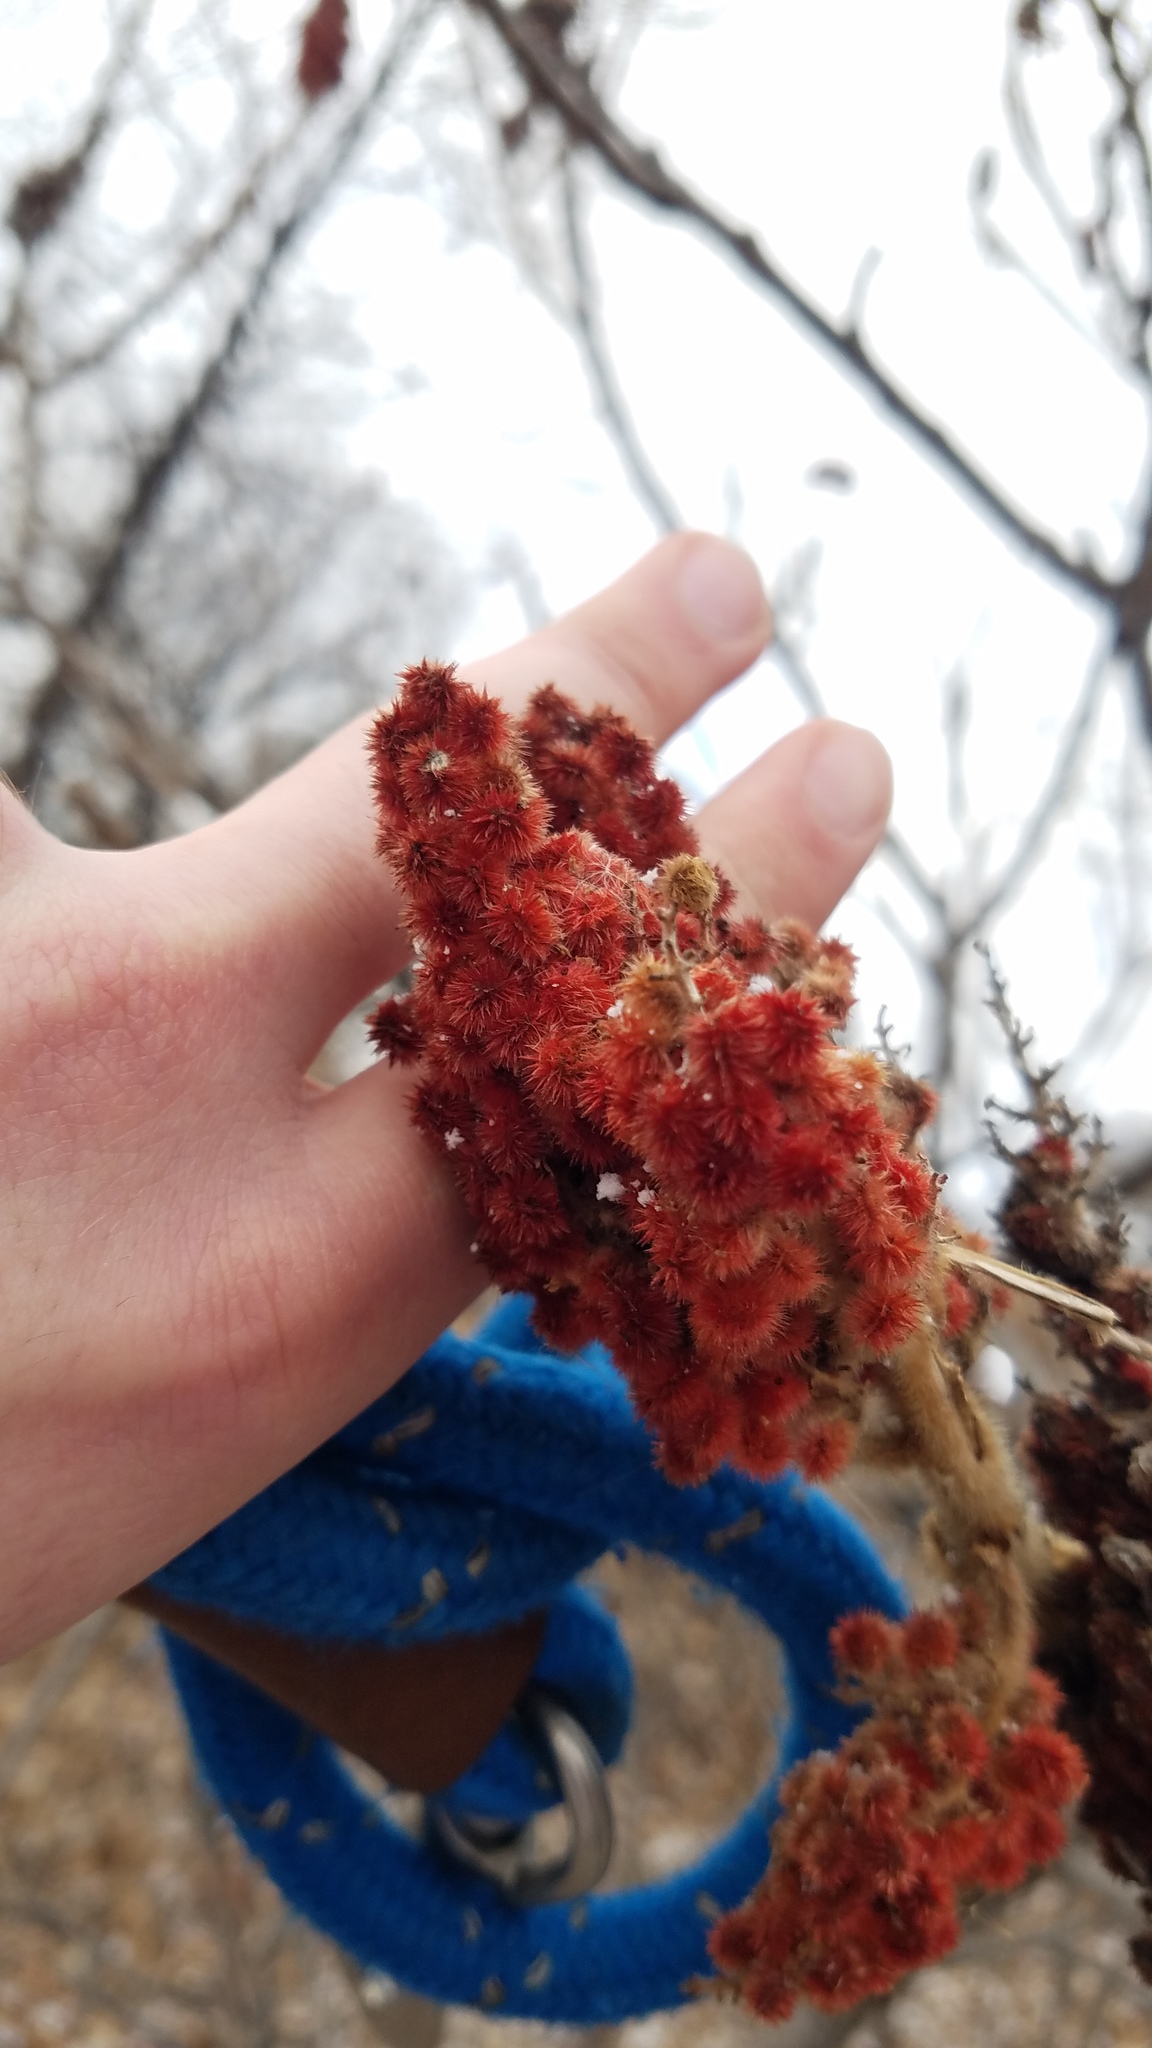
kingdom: Plantae
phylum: Tracheophyta
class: Magnoliopsida
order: Sapindales
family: Anacardiaceae
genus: Rhus
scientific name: Rhus typhina
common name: Staghorn sumac
